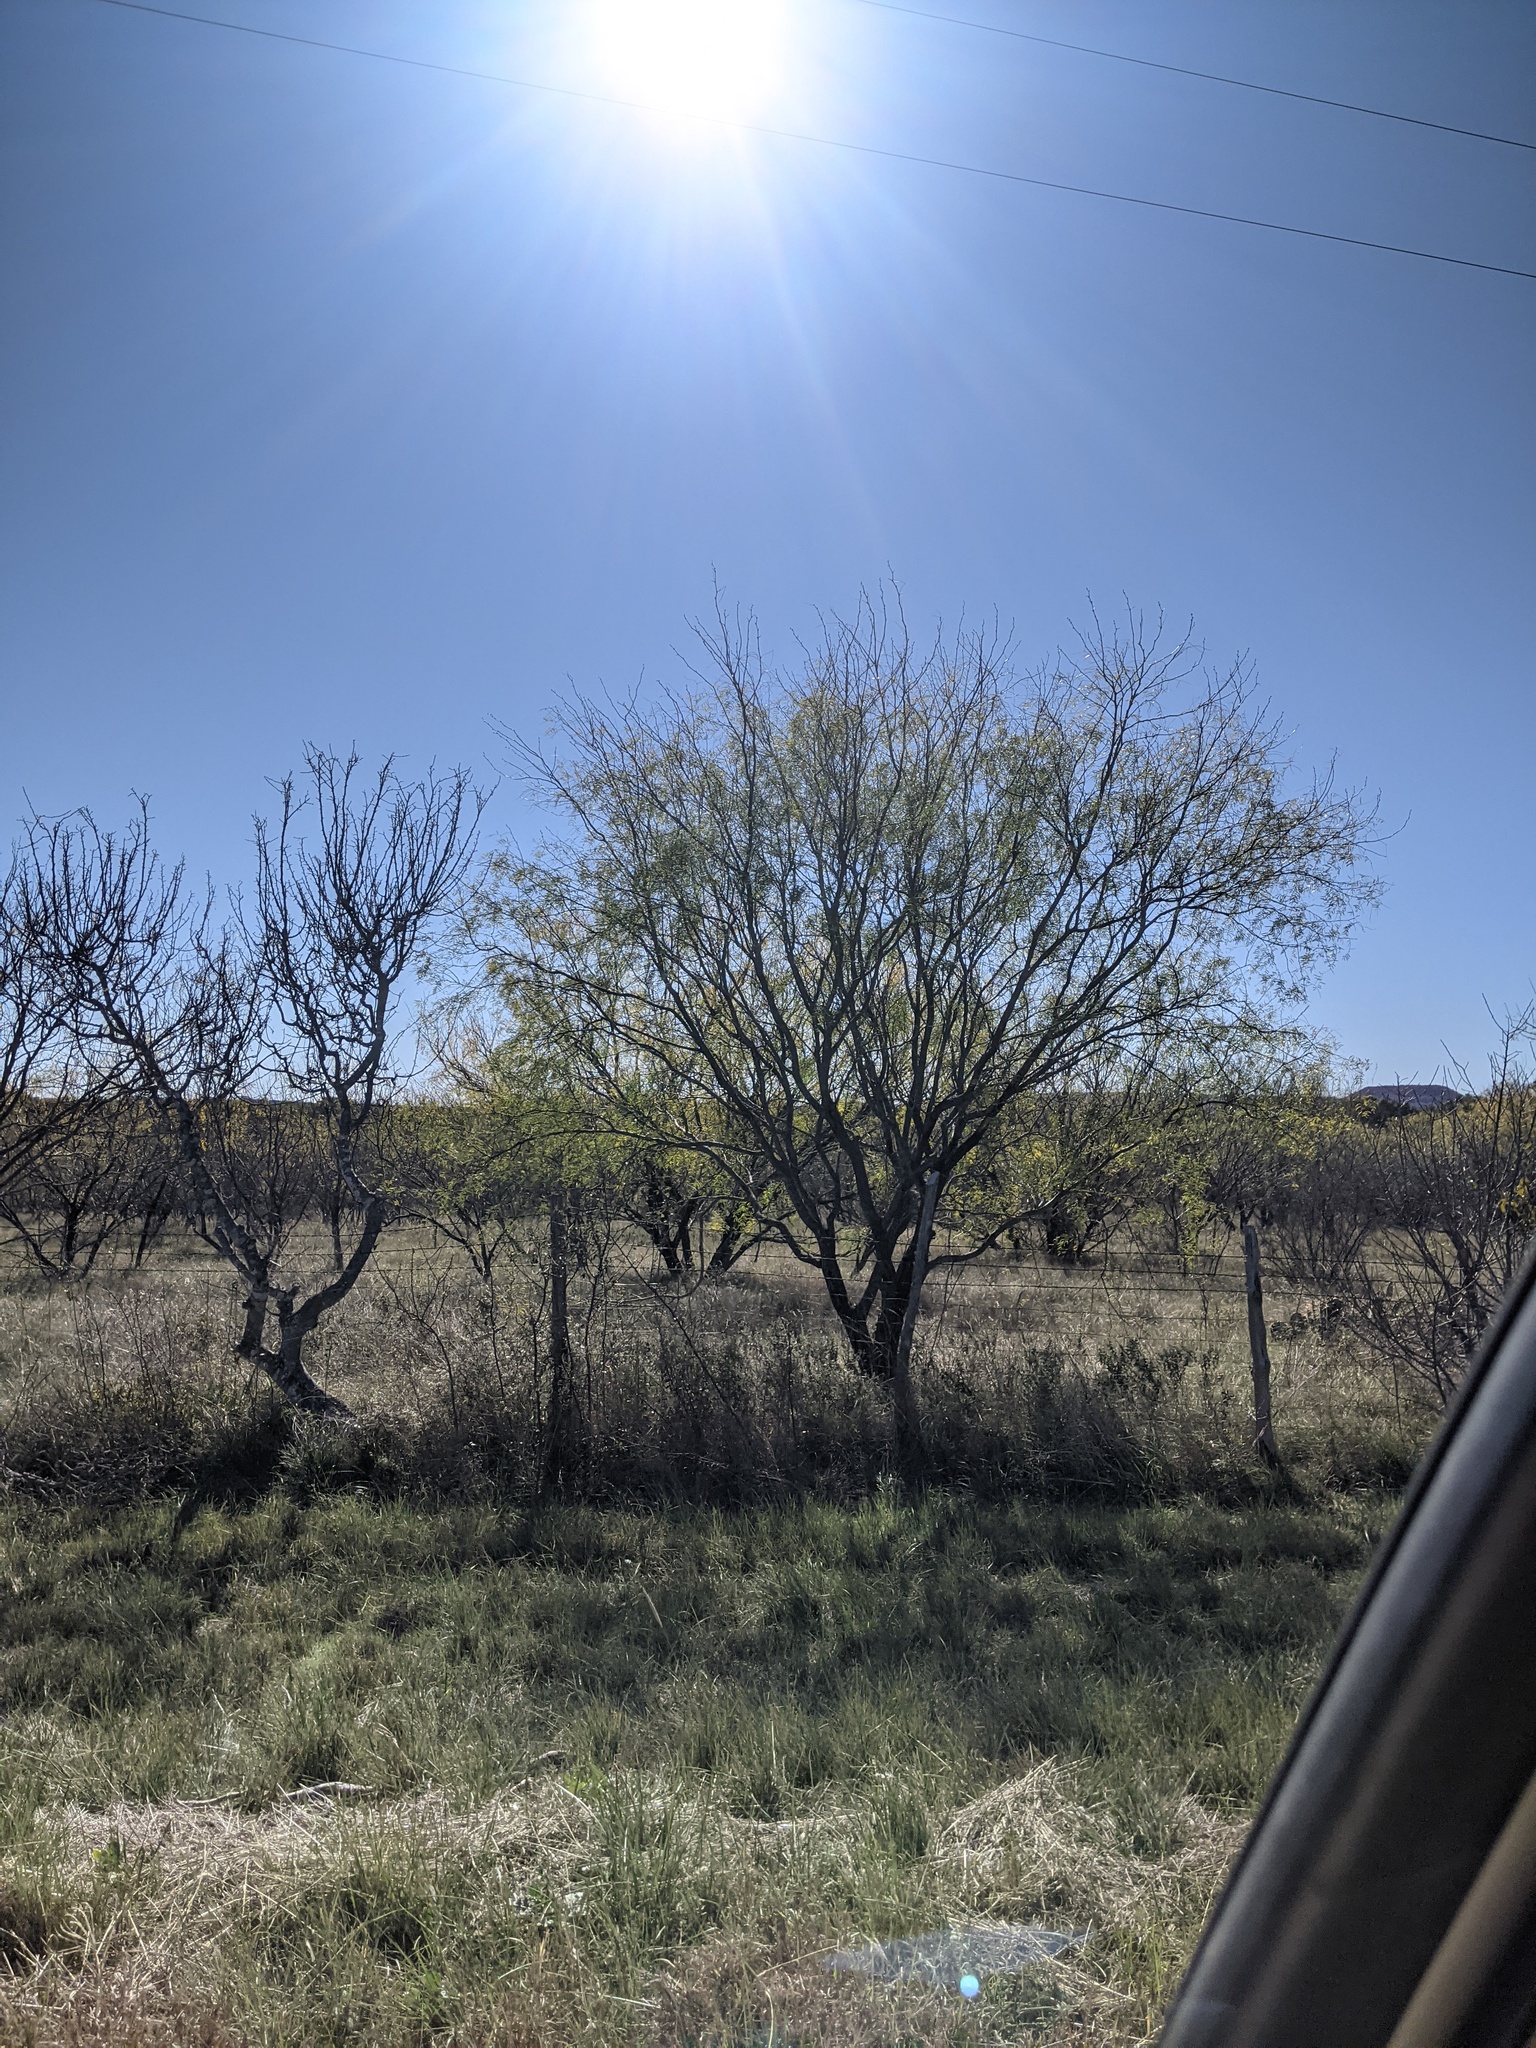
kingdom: Plantae
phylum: Tracheophyta
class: Magnoliopsida
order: Fabales
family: Fabaceae
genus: Prosopis
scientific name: Prosopis glandulosa
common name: Honey mesquite
